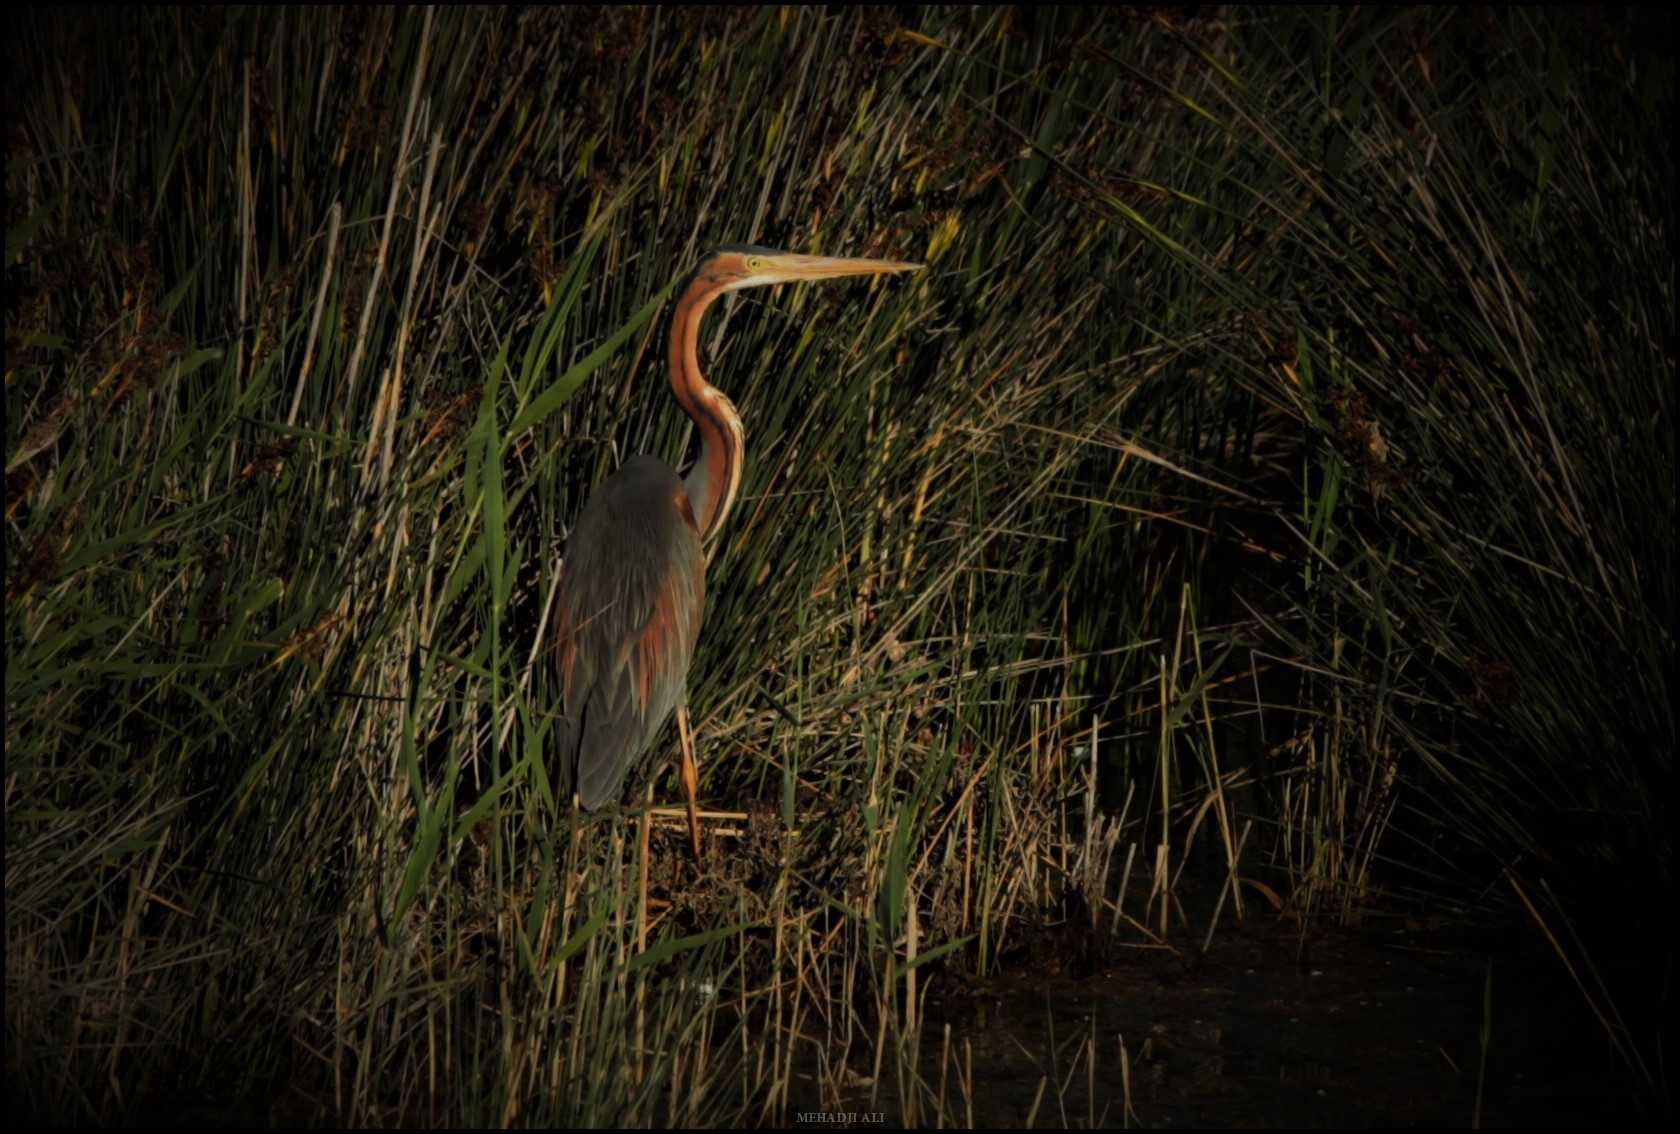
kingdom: Animalia
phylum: Chordata
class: Aves
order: Pelecaniformes
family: Ardeidae
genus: Ardea
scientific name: Ardea purpurea
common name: Purple heron
